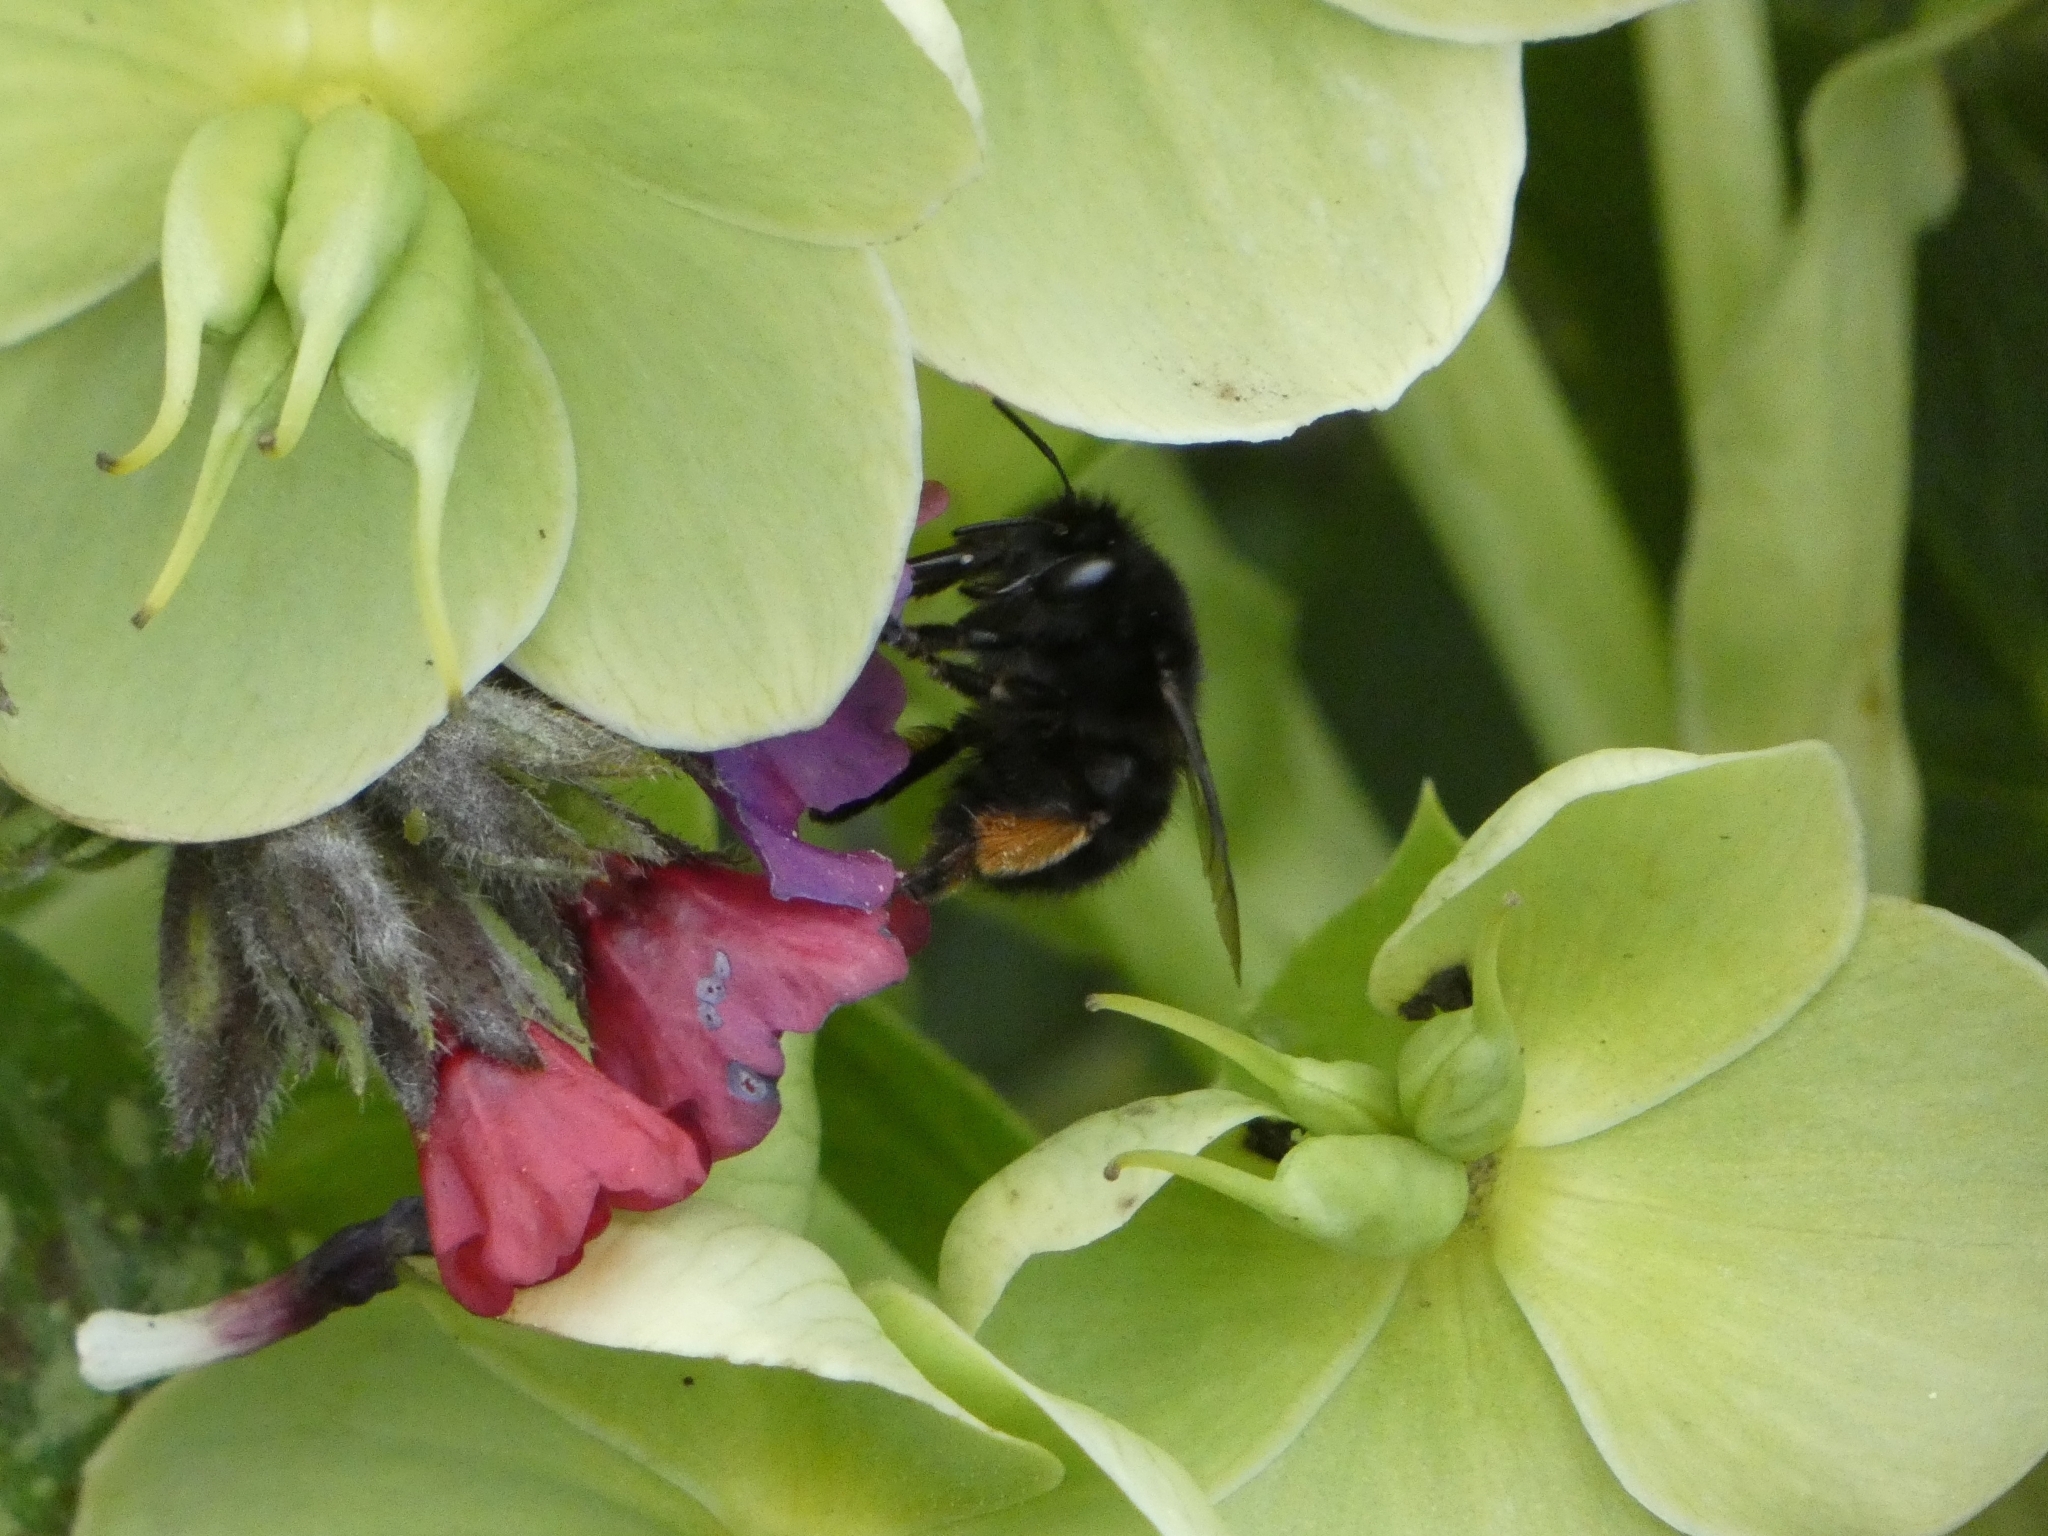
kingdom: Animalia
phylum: Arthropoda
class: Insecta
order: Hymenoptera
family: Apidae
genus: Anthophora
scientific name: Anthophora plumipes
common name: Hairy-footed flower bee
